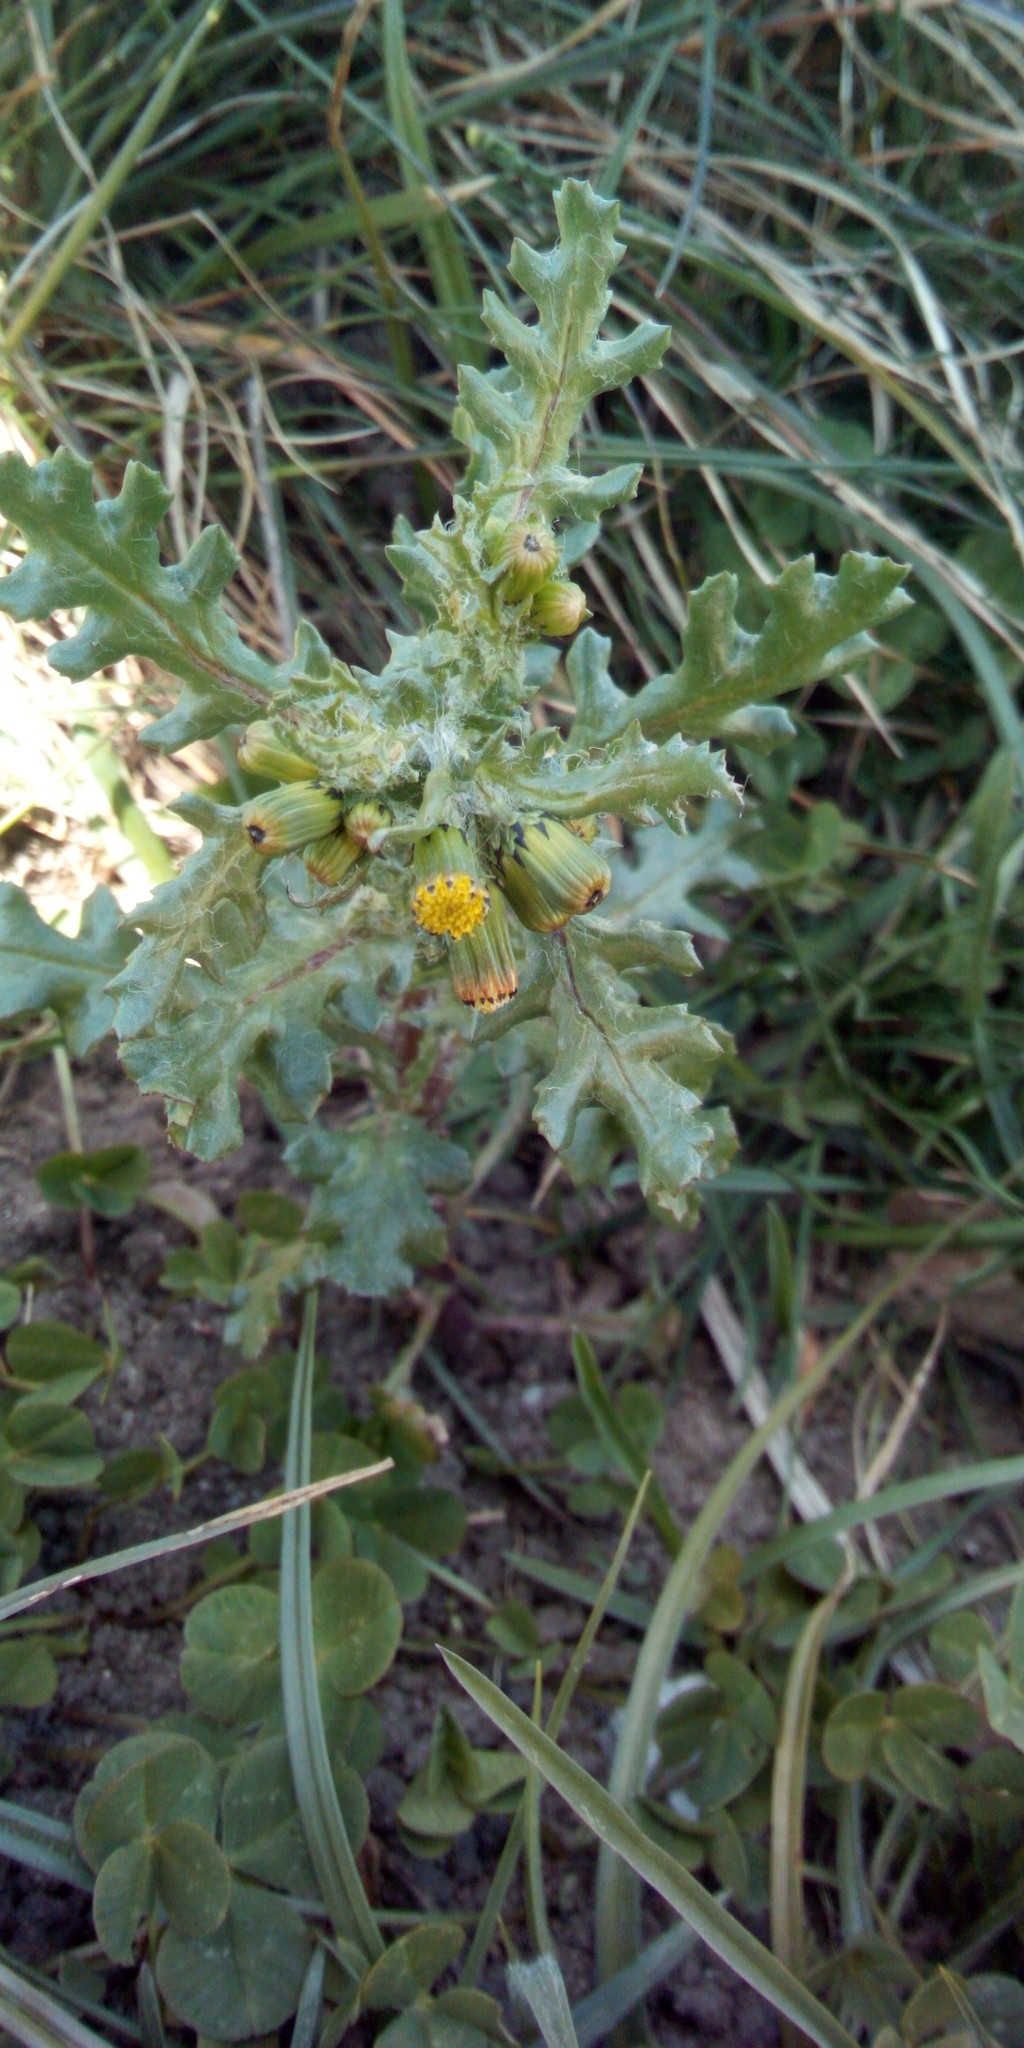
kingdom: Plantae
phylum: Tracheophyta
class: Magnoliopsida
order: Asterales
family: Asteraceae
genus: Senecio
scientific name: Senecio vulgaris
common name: Old-man-in-the-spring
